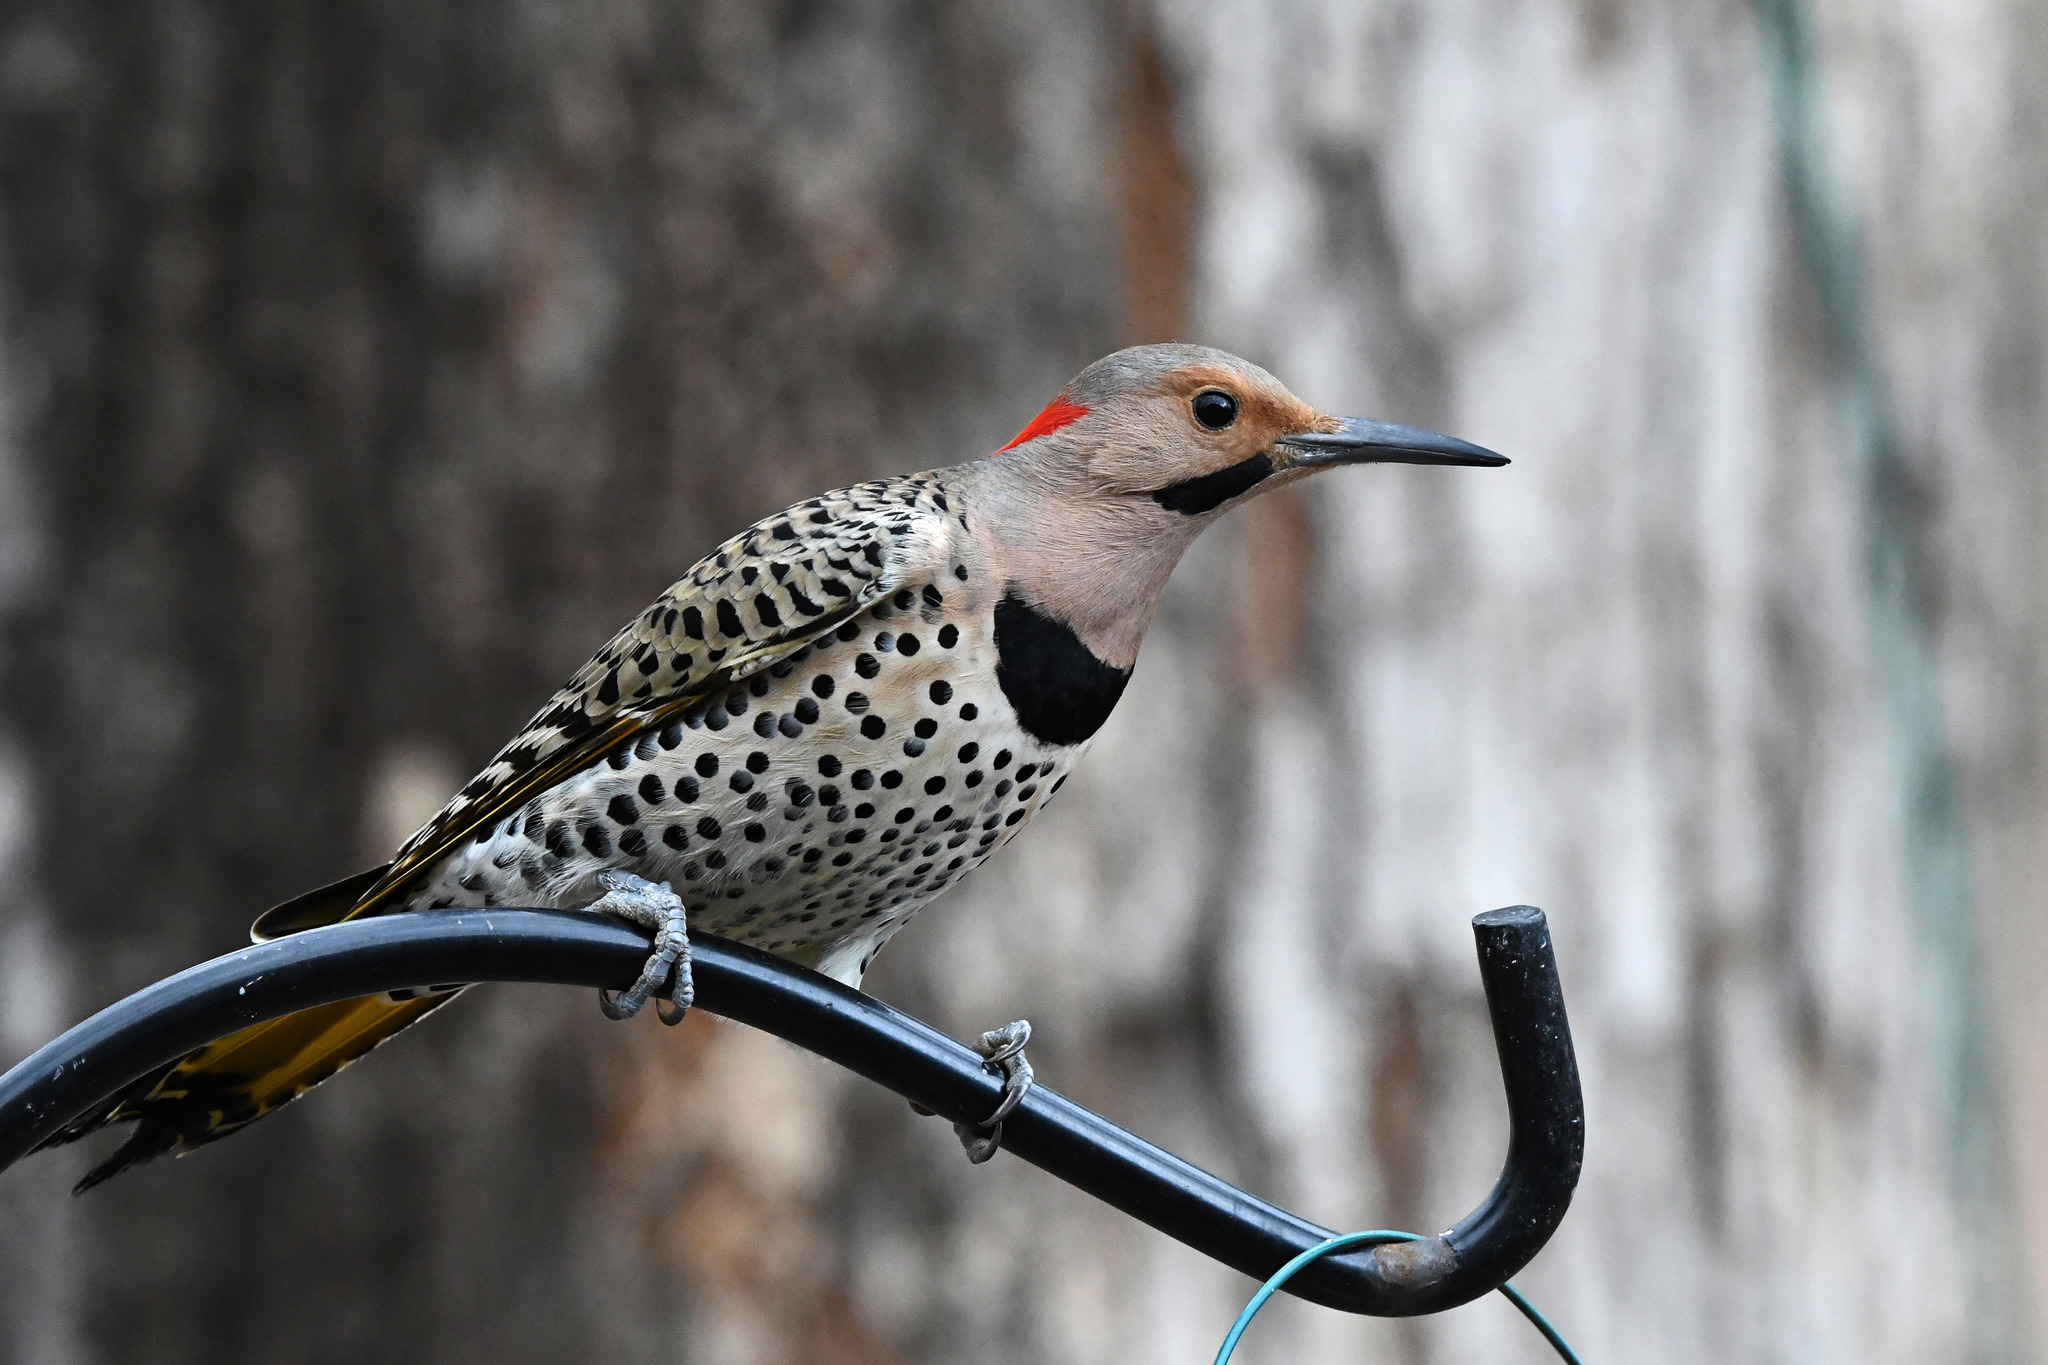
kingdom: Animalia
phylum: Chordata
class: Aves
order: Piciformes
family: Picidae
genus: Colaptes
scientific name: Colaptes auratus
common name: Northern flicker
